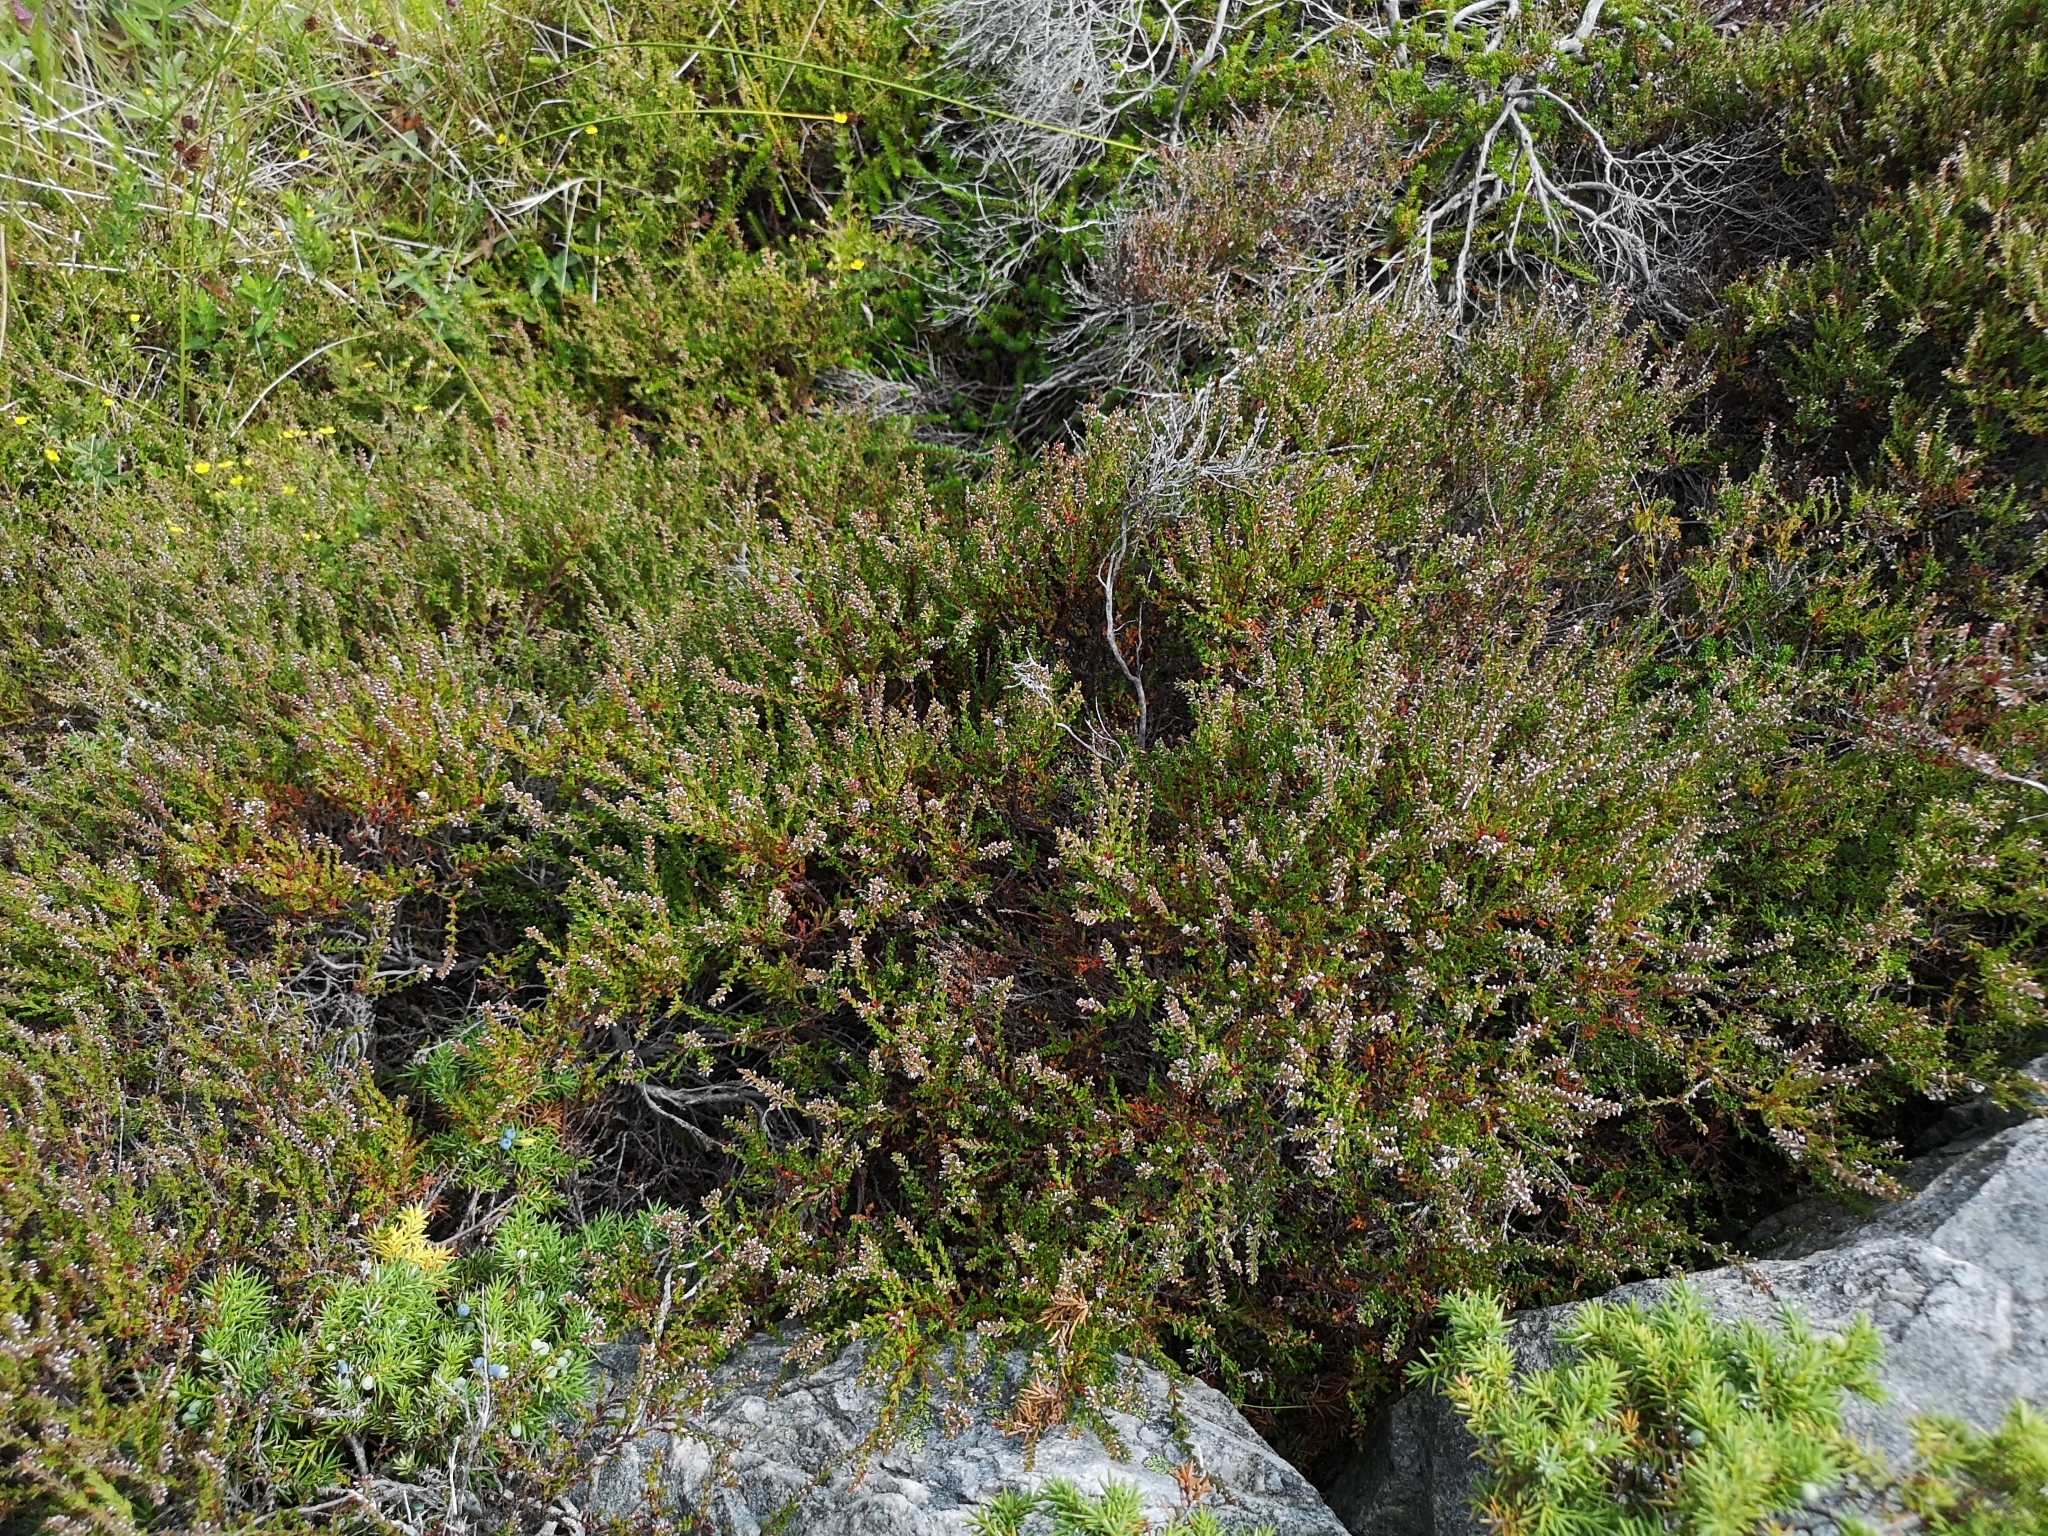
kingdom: Plantae
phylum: Tracheophyta
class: Magnoliopsida
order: Ericales
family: Ericaceae
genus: Calluna
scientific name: Calluna vulgaris
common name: Heather
